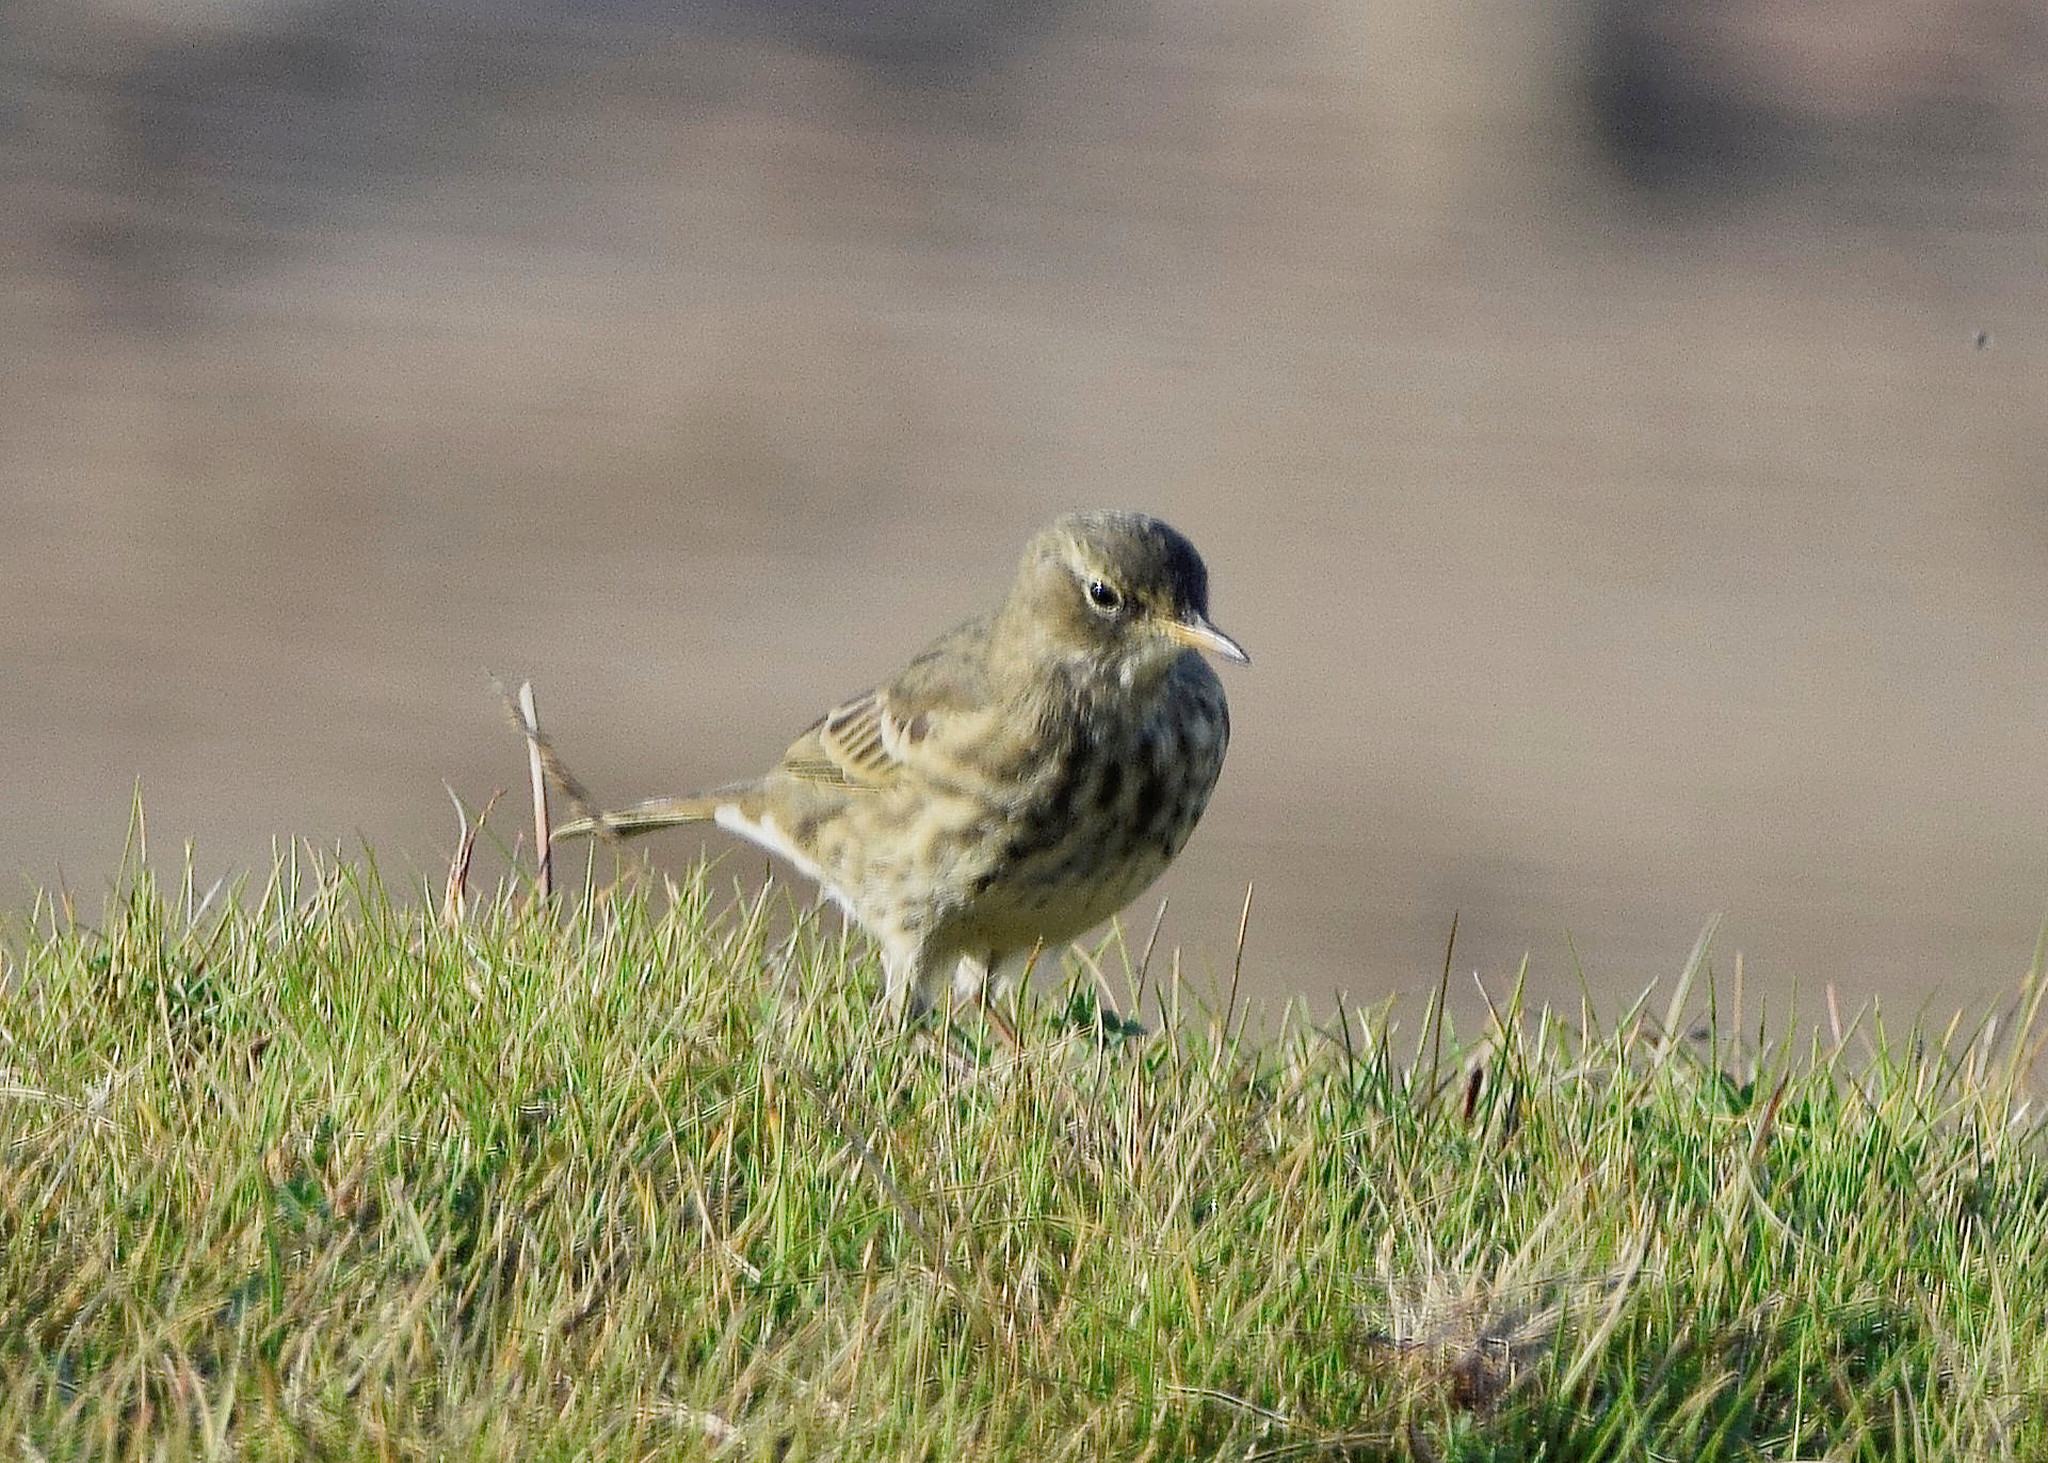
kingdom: Animalia
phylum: Chordata
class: Aves
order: Passeriformes
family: Motacillidae
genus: Anthus
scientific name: Anthus petrosus
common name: Eurasian rock pipit
